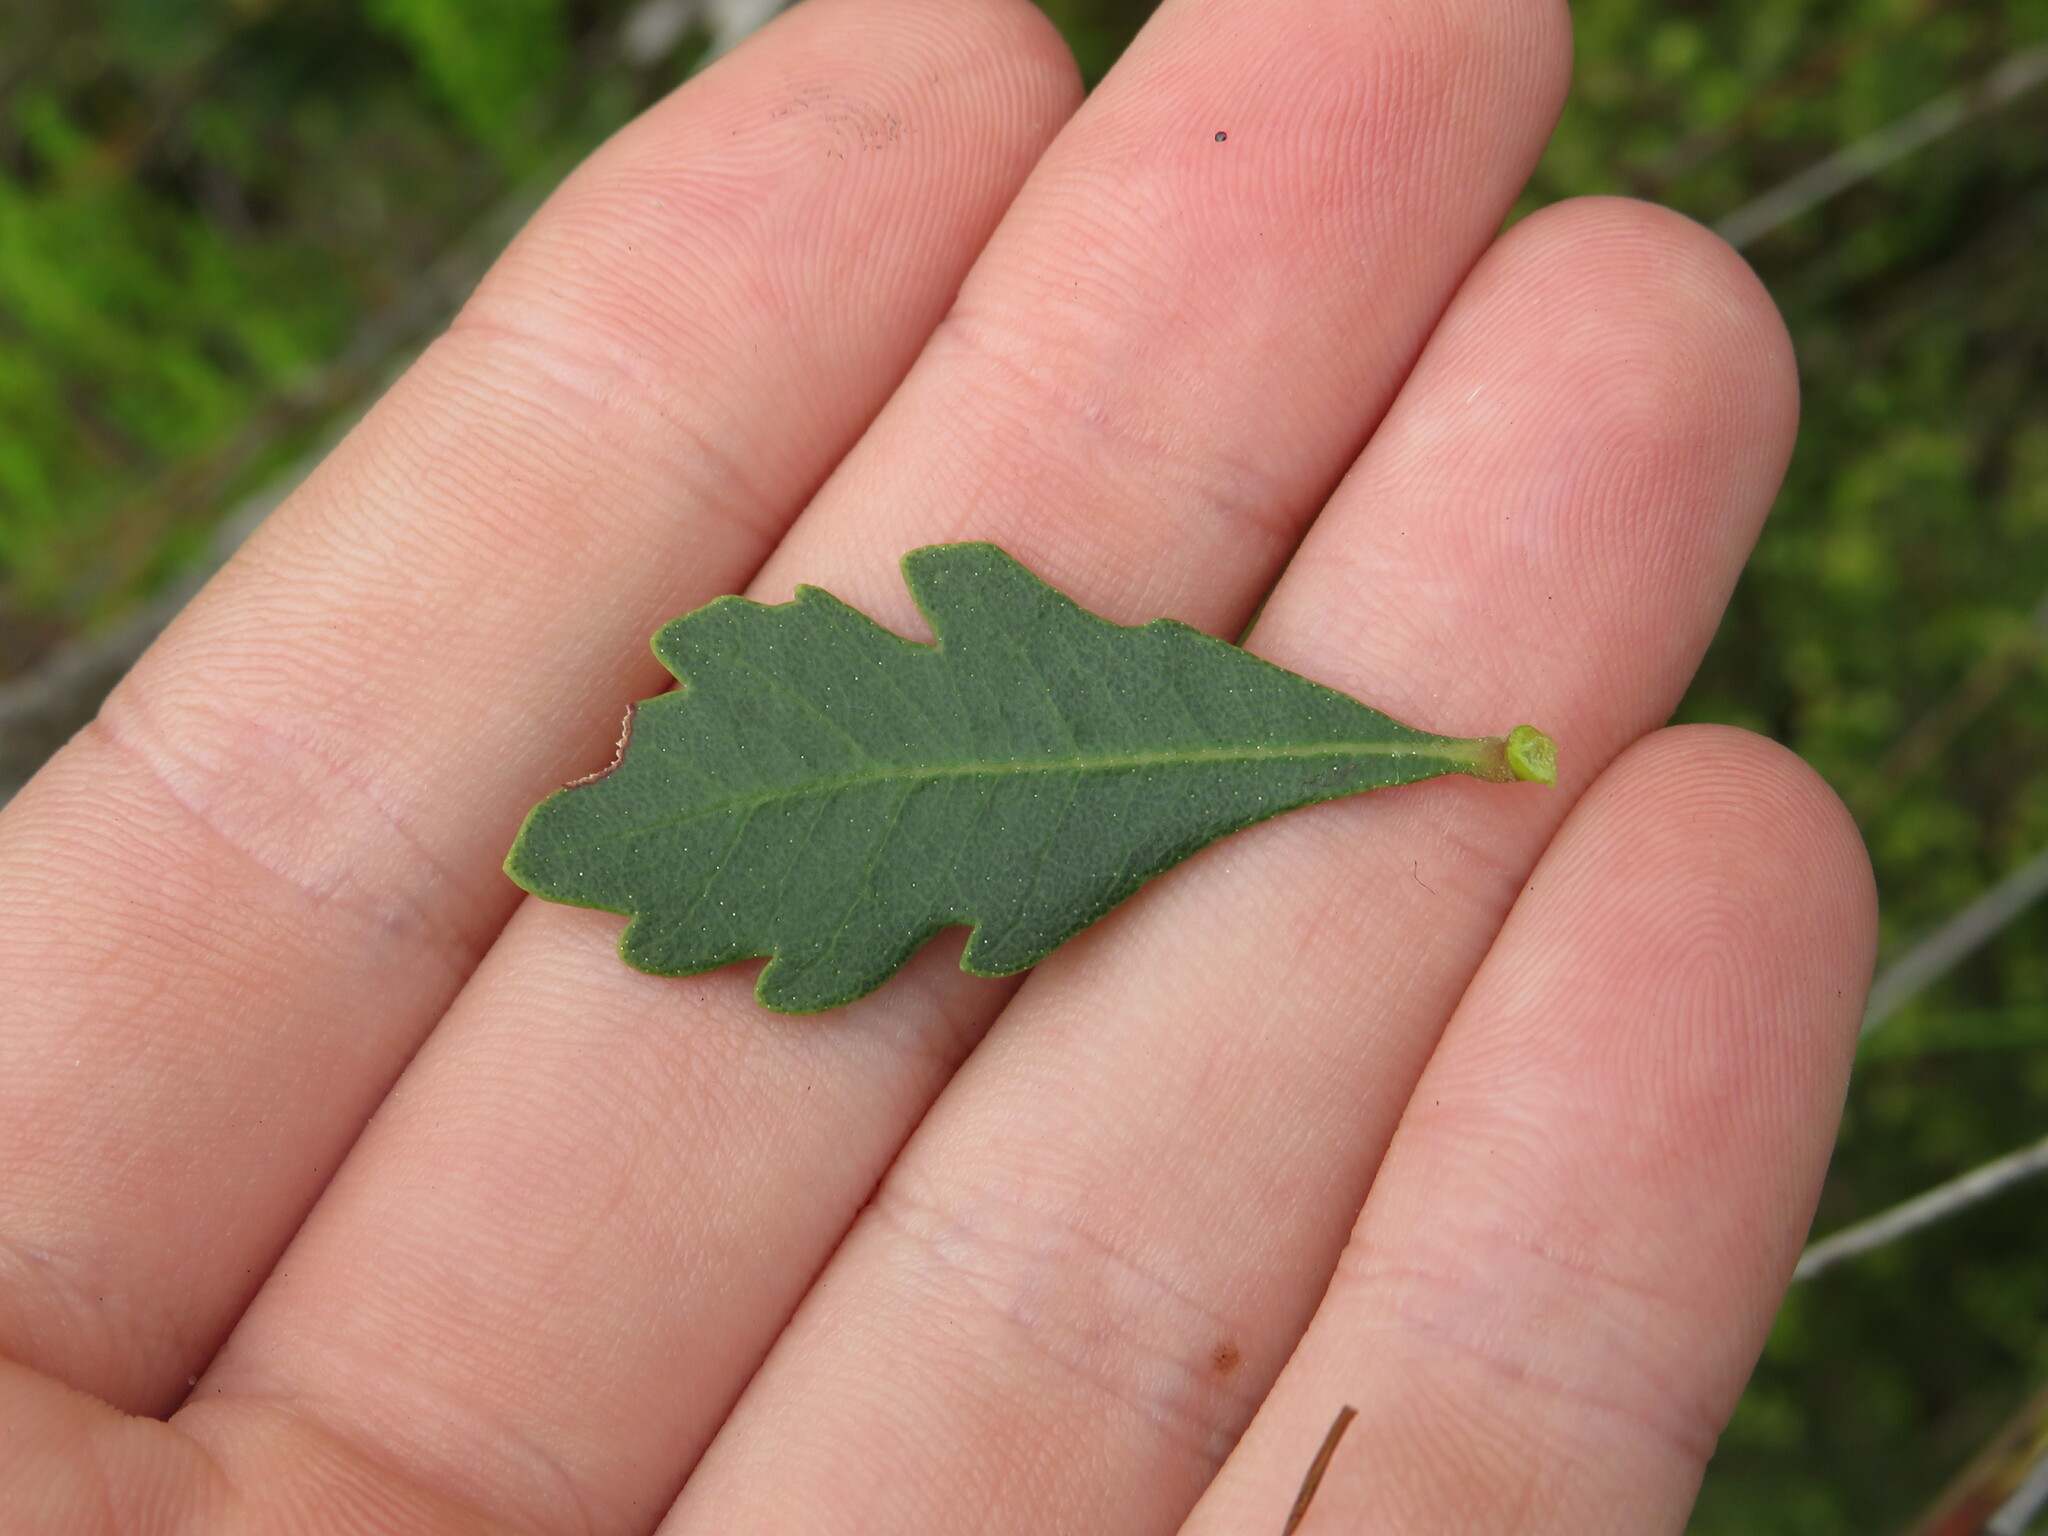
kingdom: Plantae
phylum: Tracheophyta
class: Magnoliopsida
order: Fagales
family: Myricaceae
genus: Morella
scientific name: Morella diversifolia
